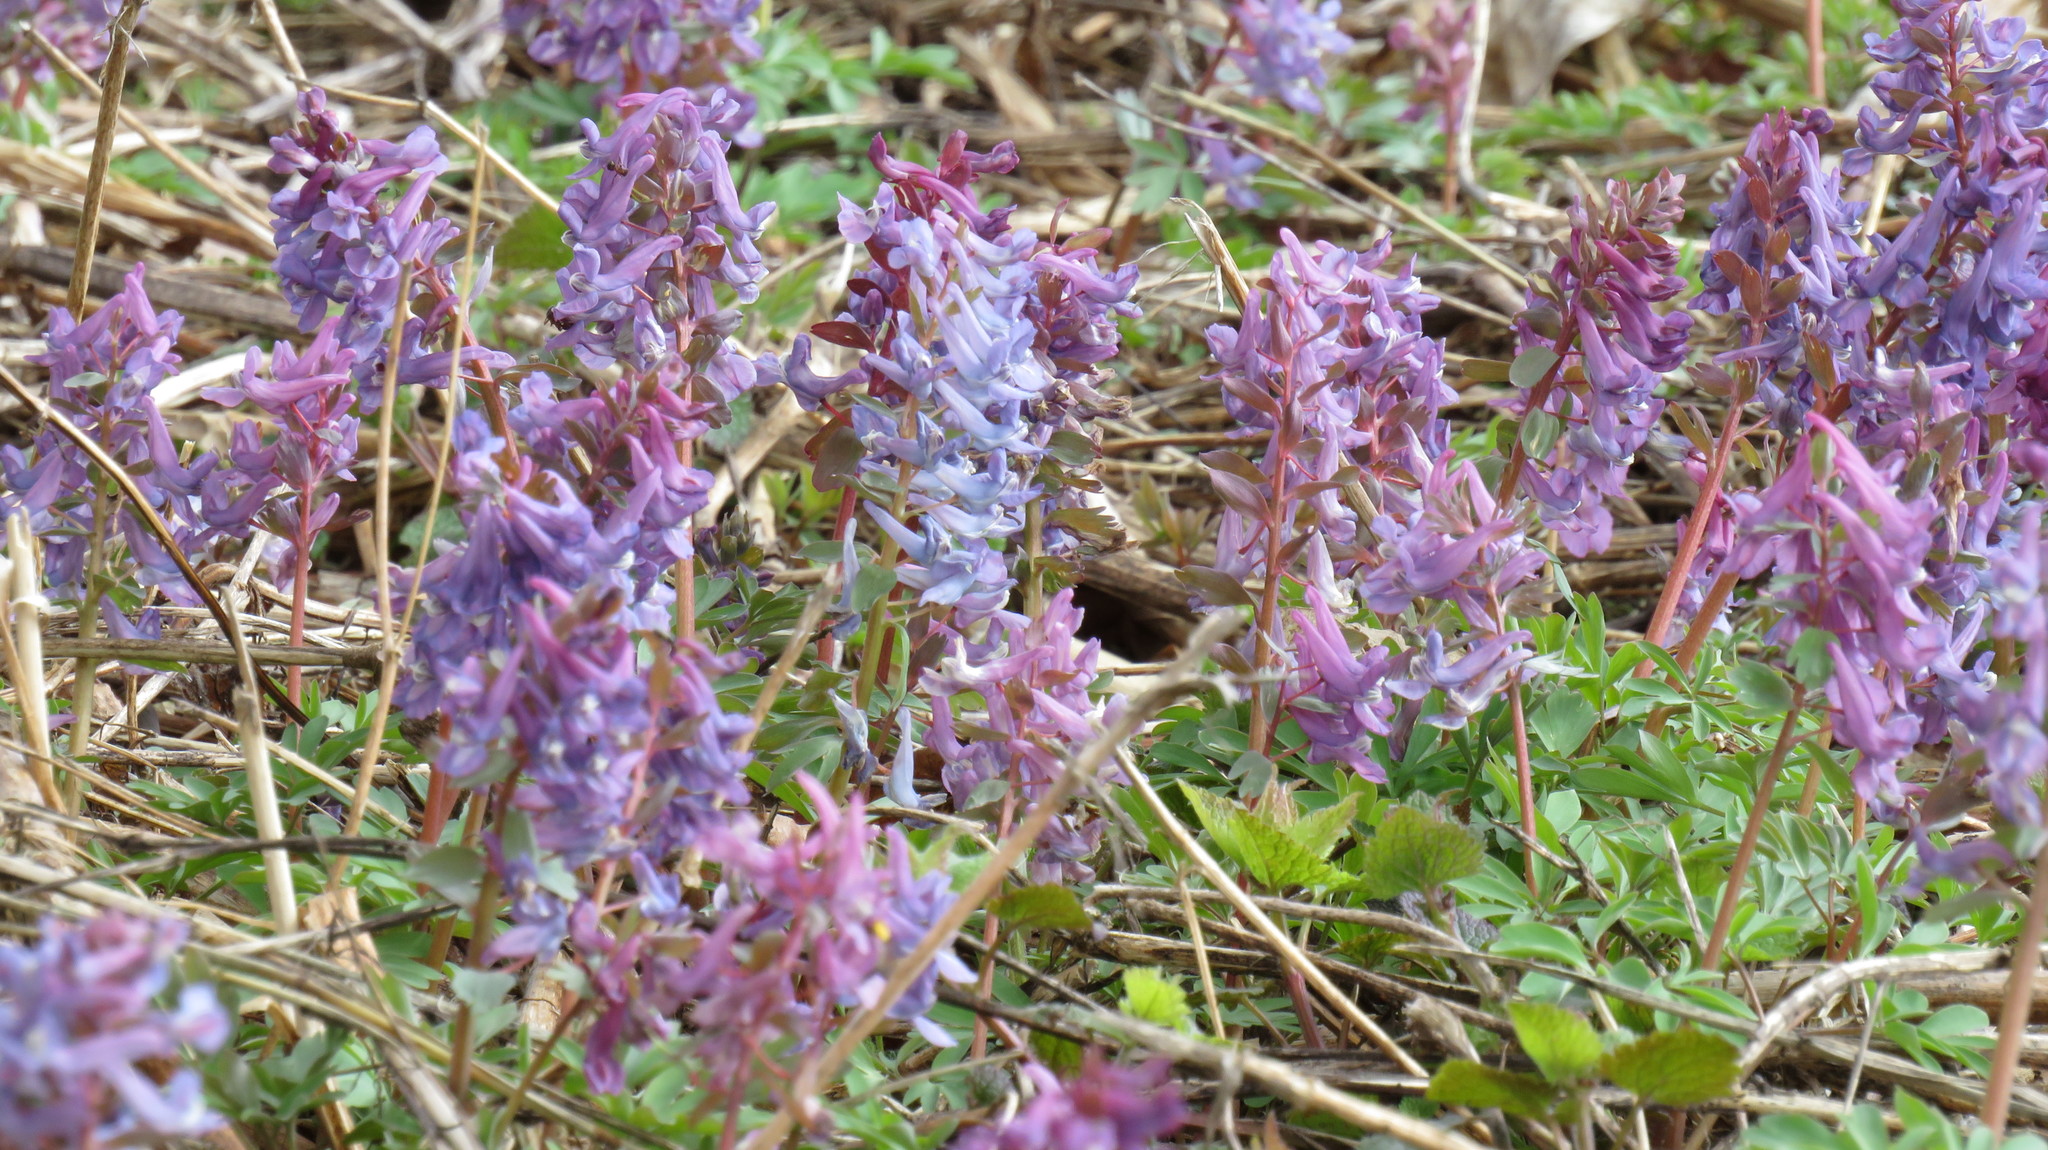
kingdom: Plantae
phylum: Tracheophyta
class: Magnoliopsida
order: Ranunculales
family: Papaveraceae
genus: Corydalis
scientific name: Corydalis solida
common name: Bird-in-a-bush
